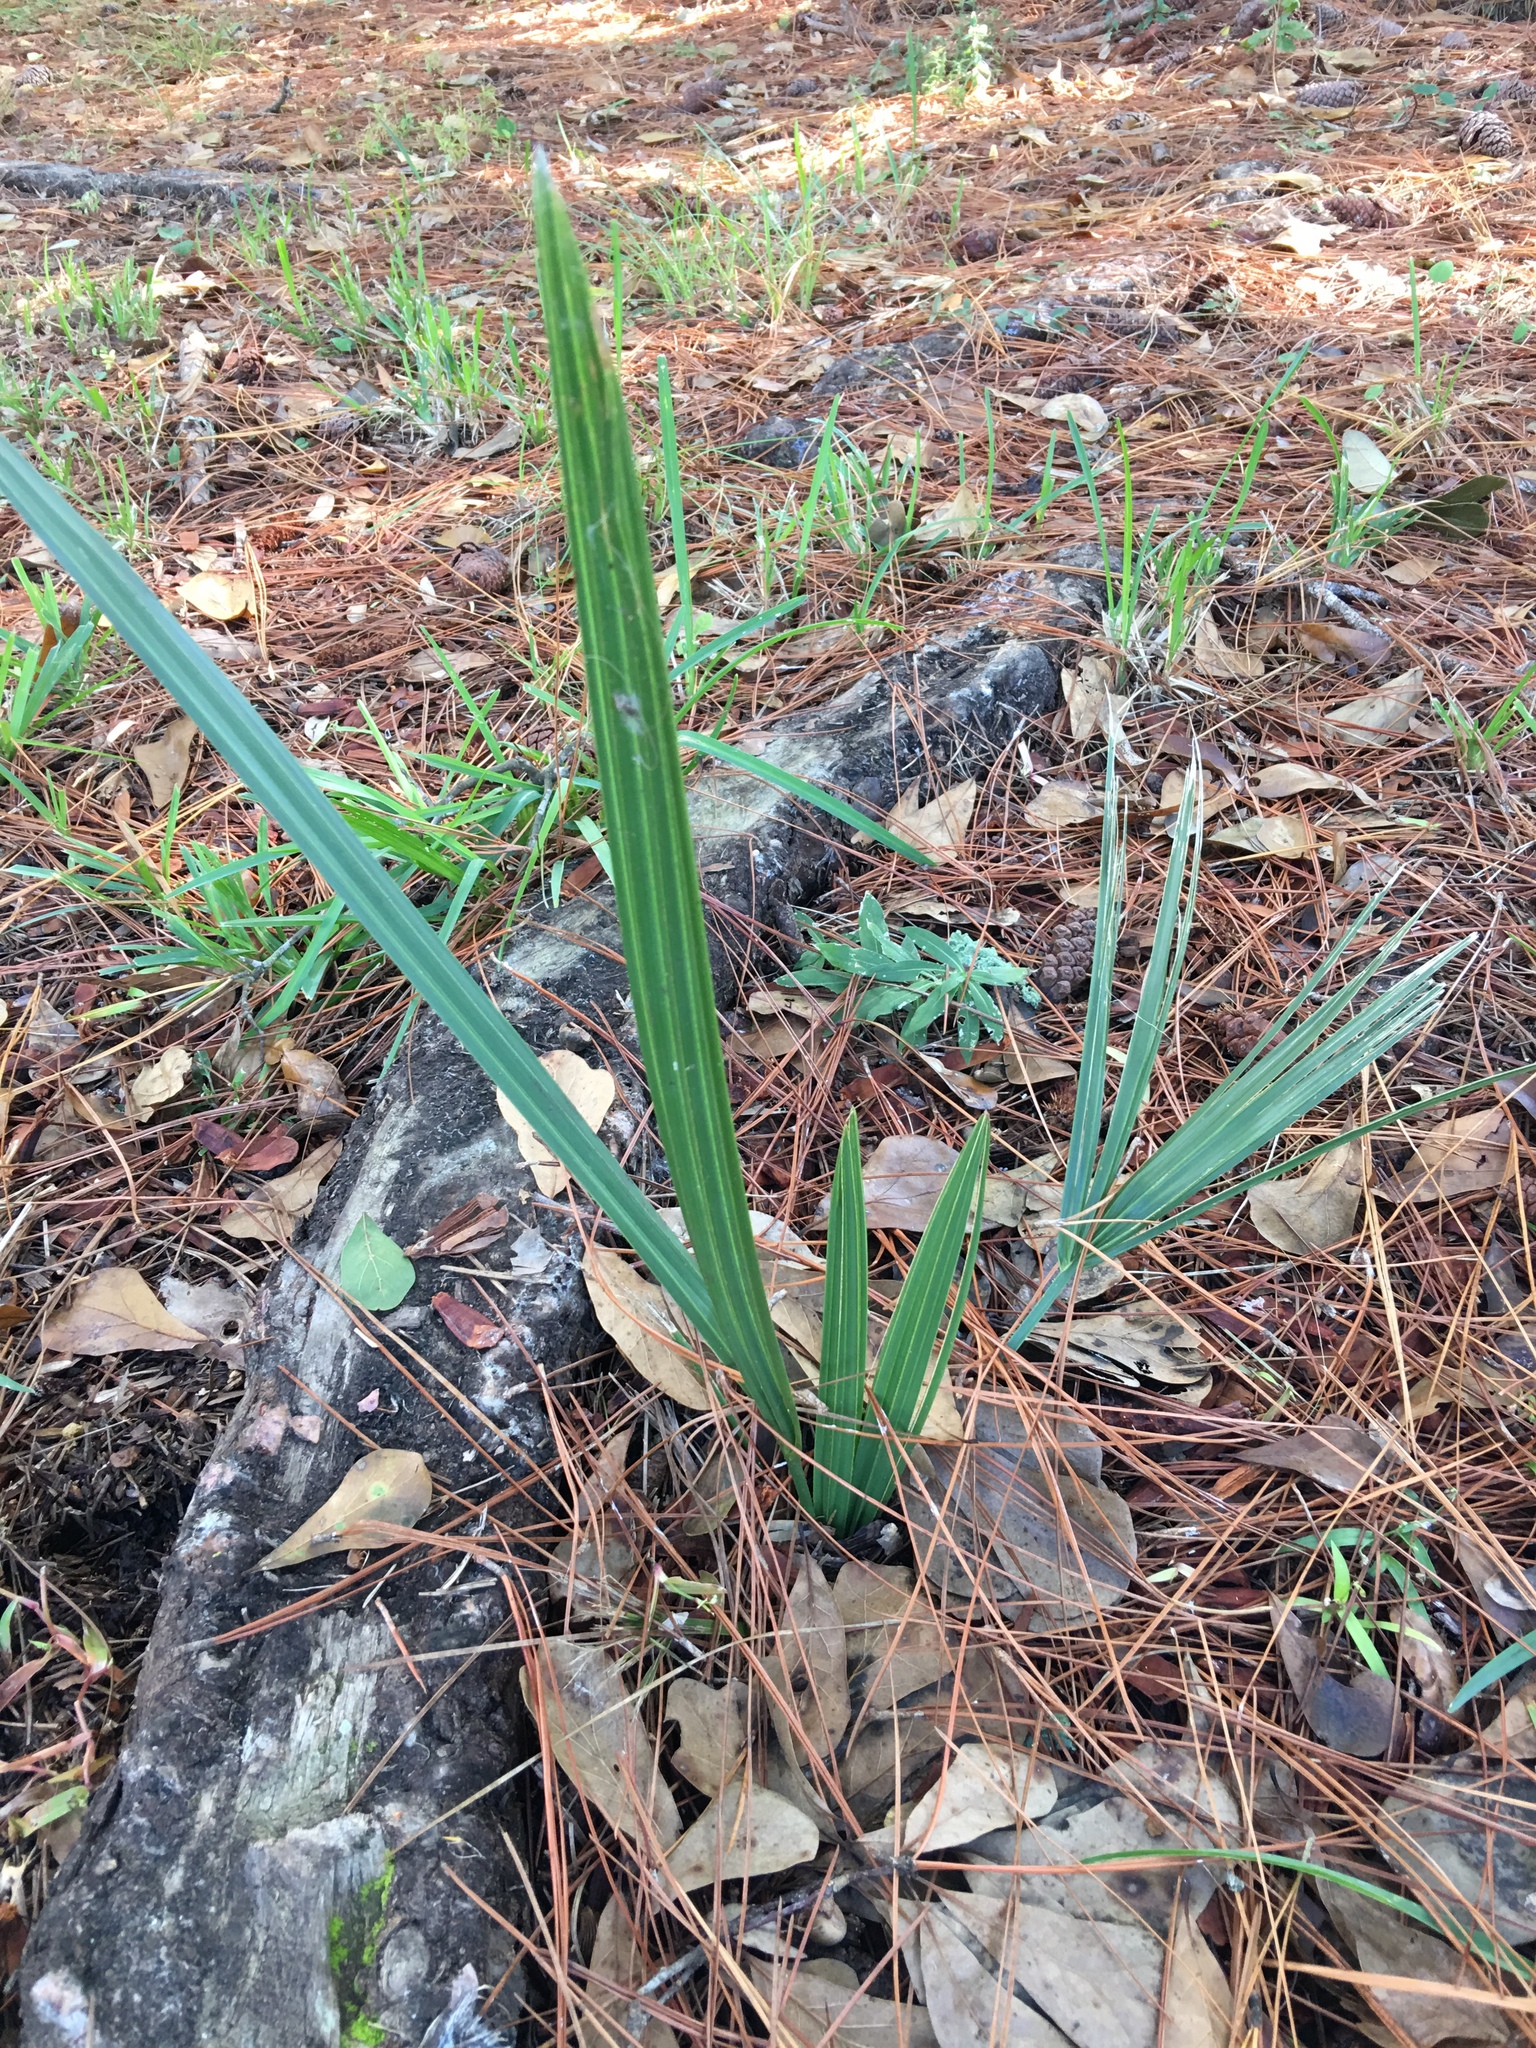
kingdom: Plantae
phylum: Tracheophyta
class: Liliopsida
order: Arecales
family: Arecaceae
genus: Serenoa
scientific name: Serenoa repens
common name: Saw-palmetto
